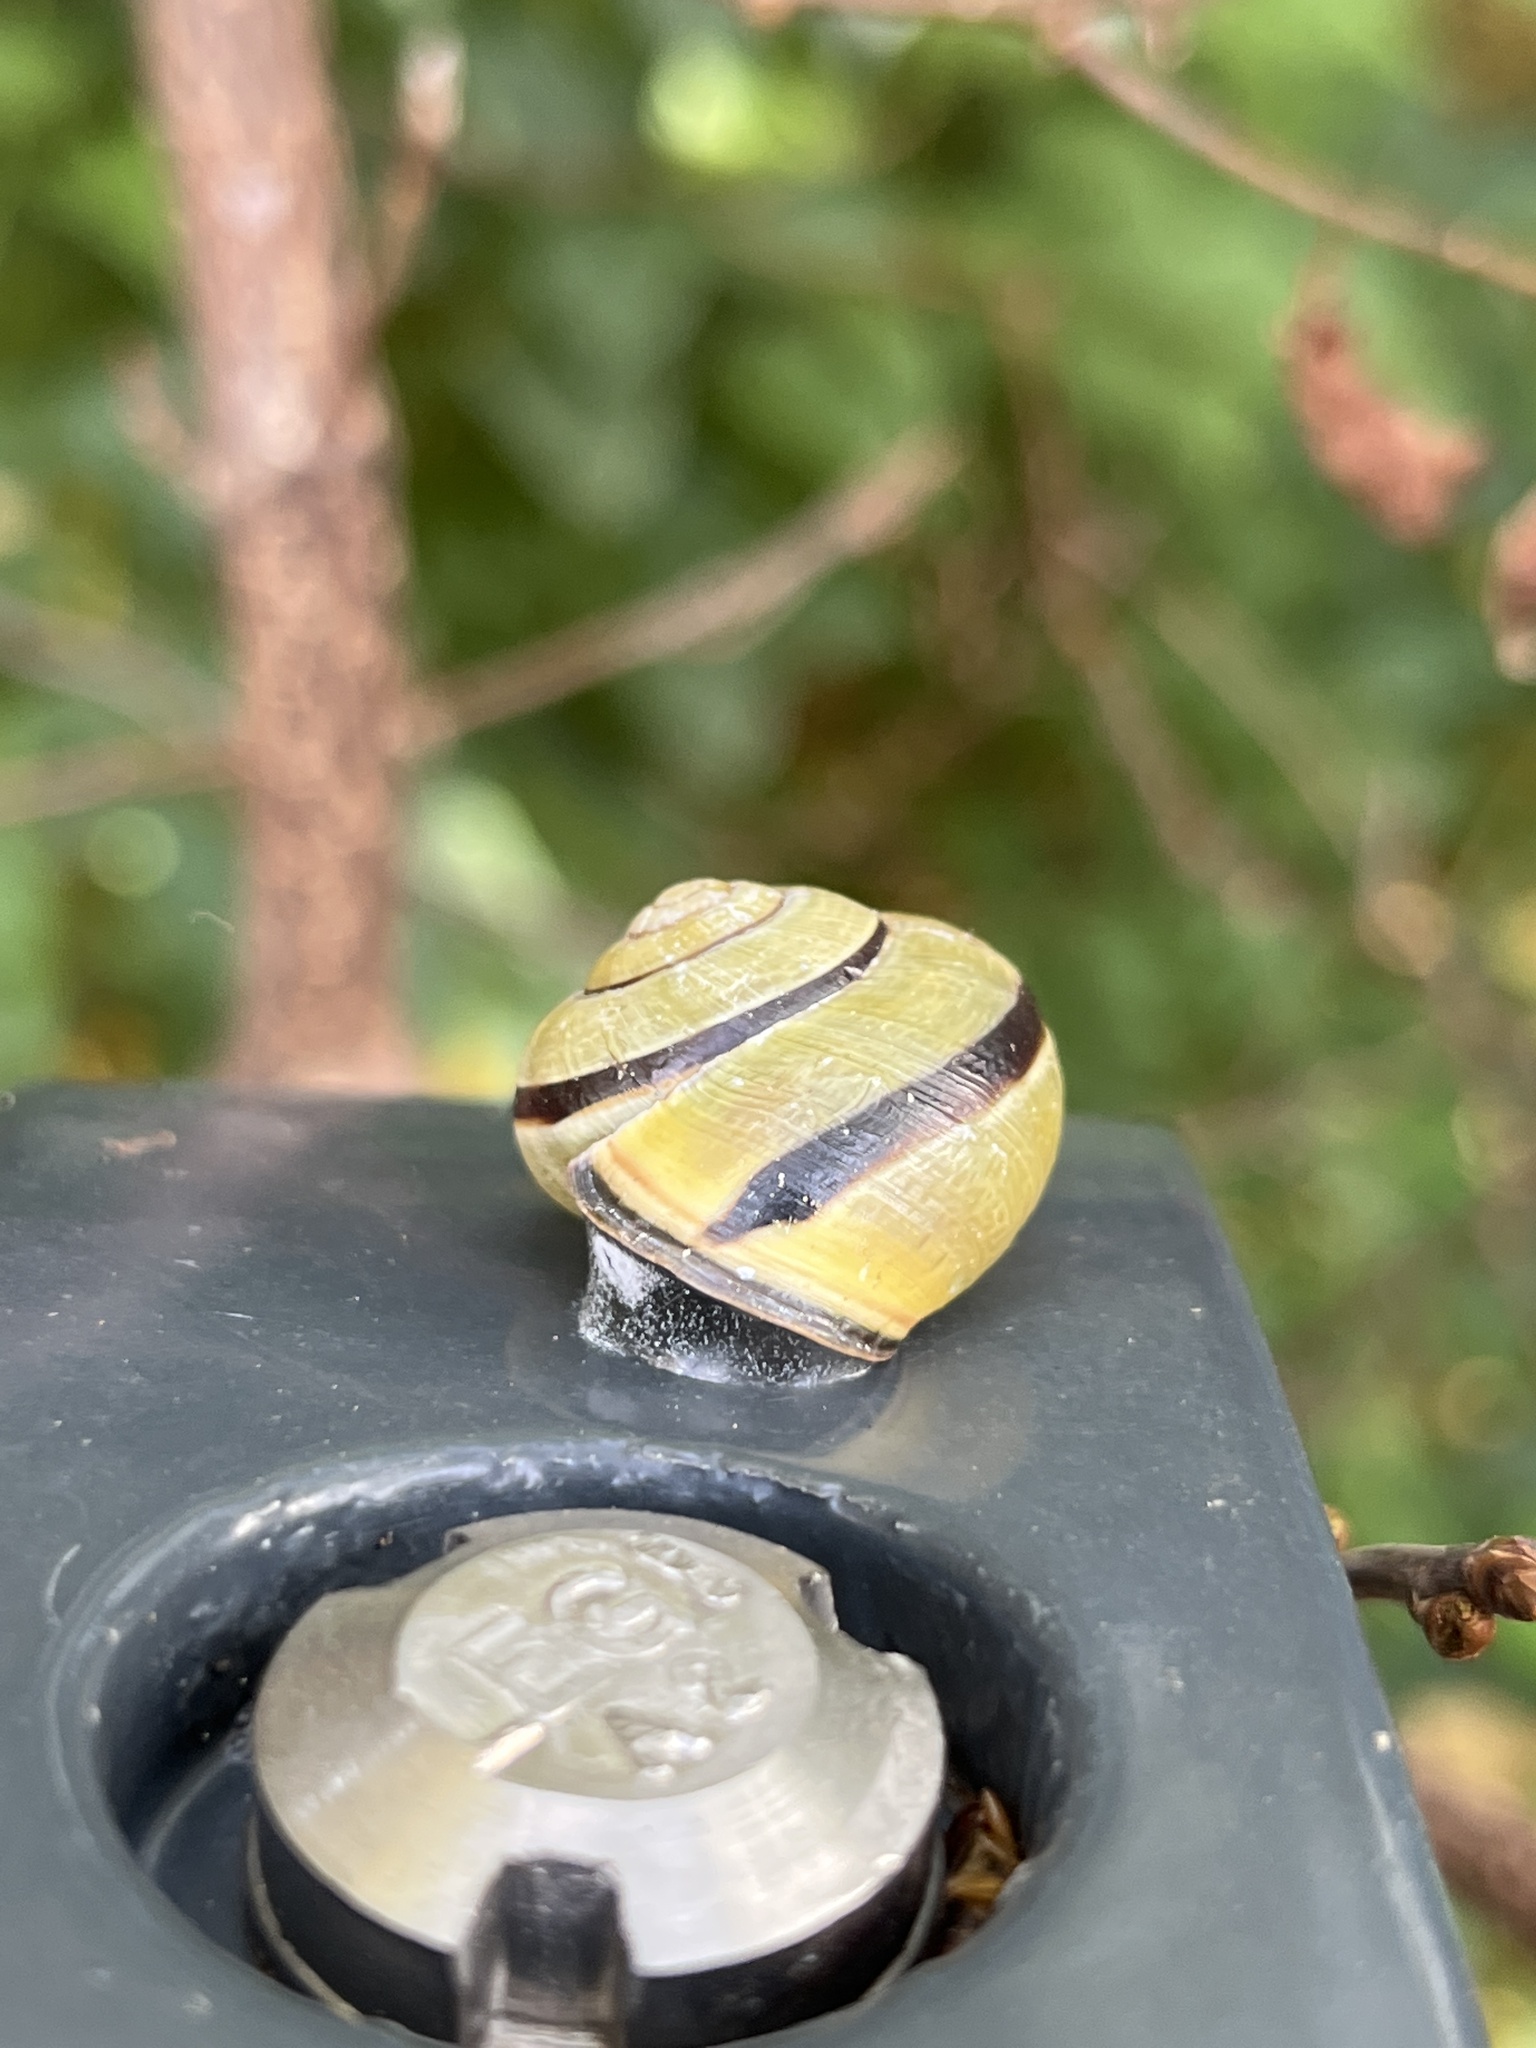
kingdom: Animalia
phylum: Mollusca
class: Gastropoda
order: Stylommatophora
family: Helicidae
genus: Cepaea
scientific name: Cepaea nemoralis
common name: Grovesnail
